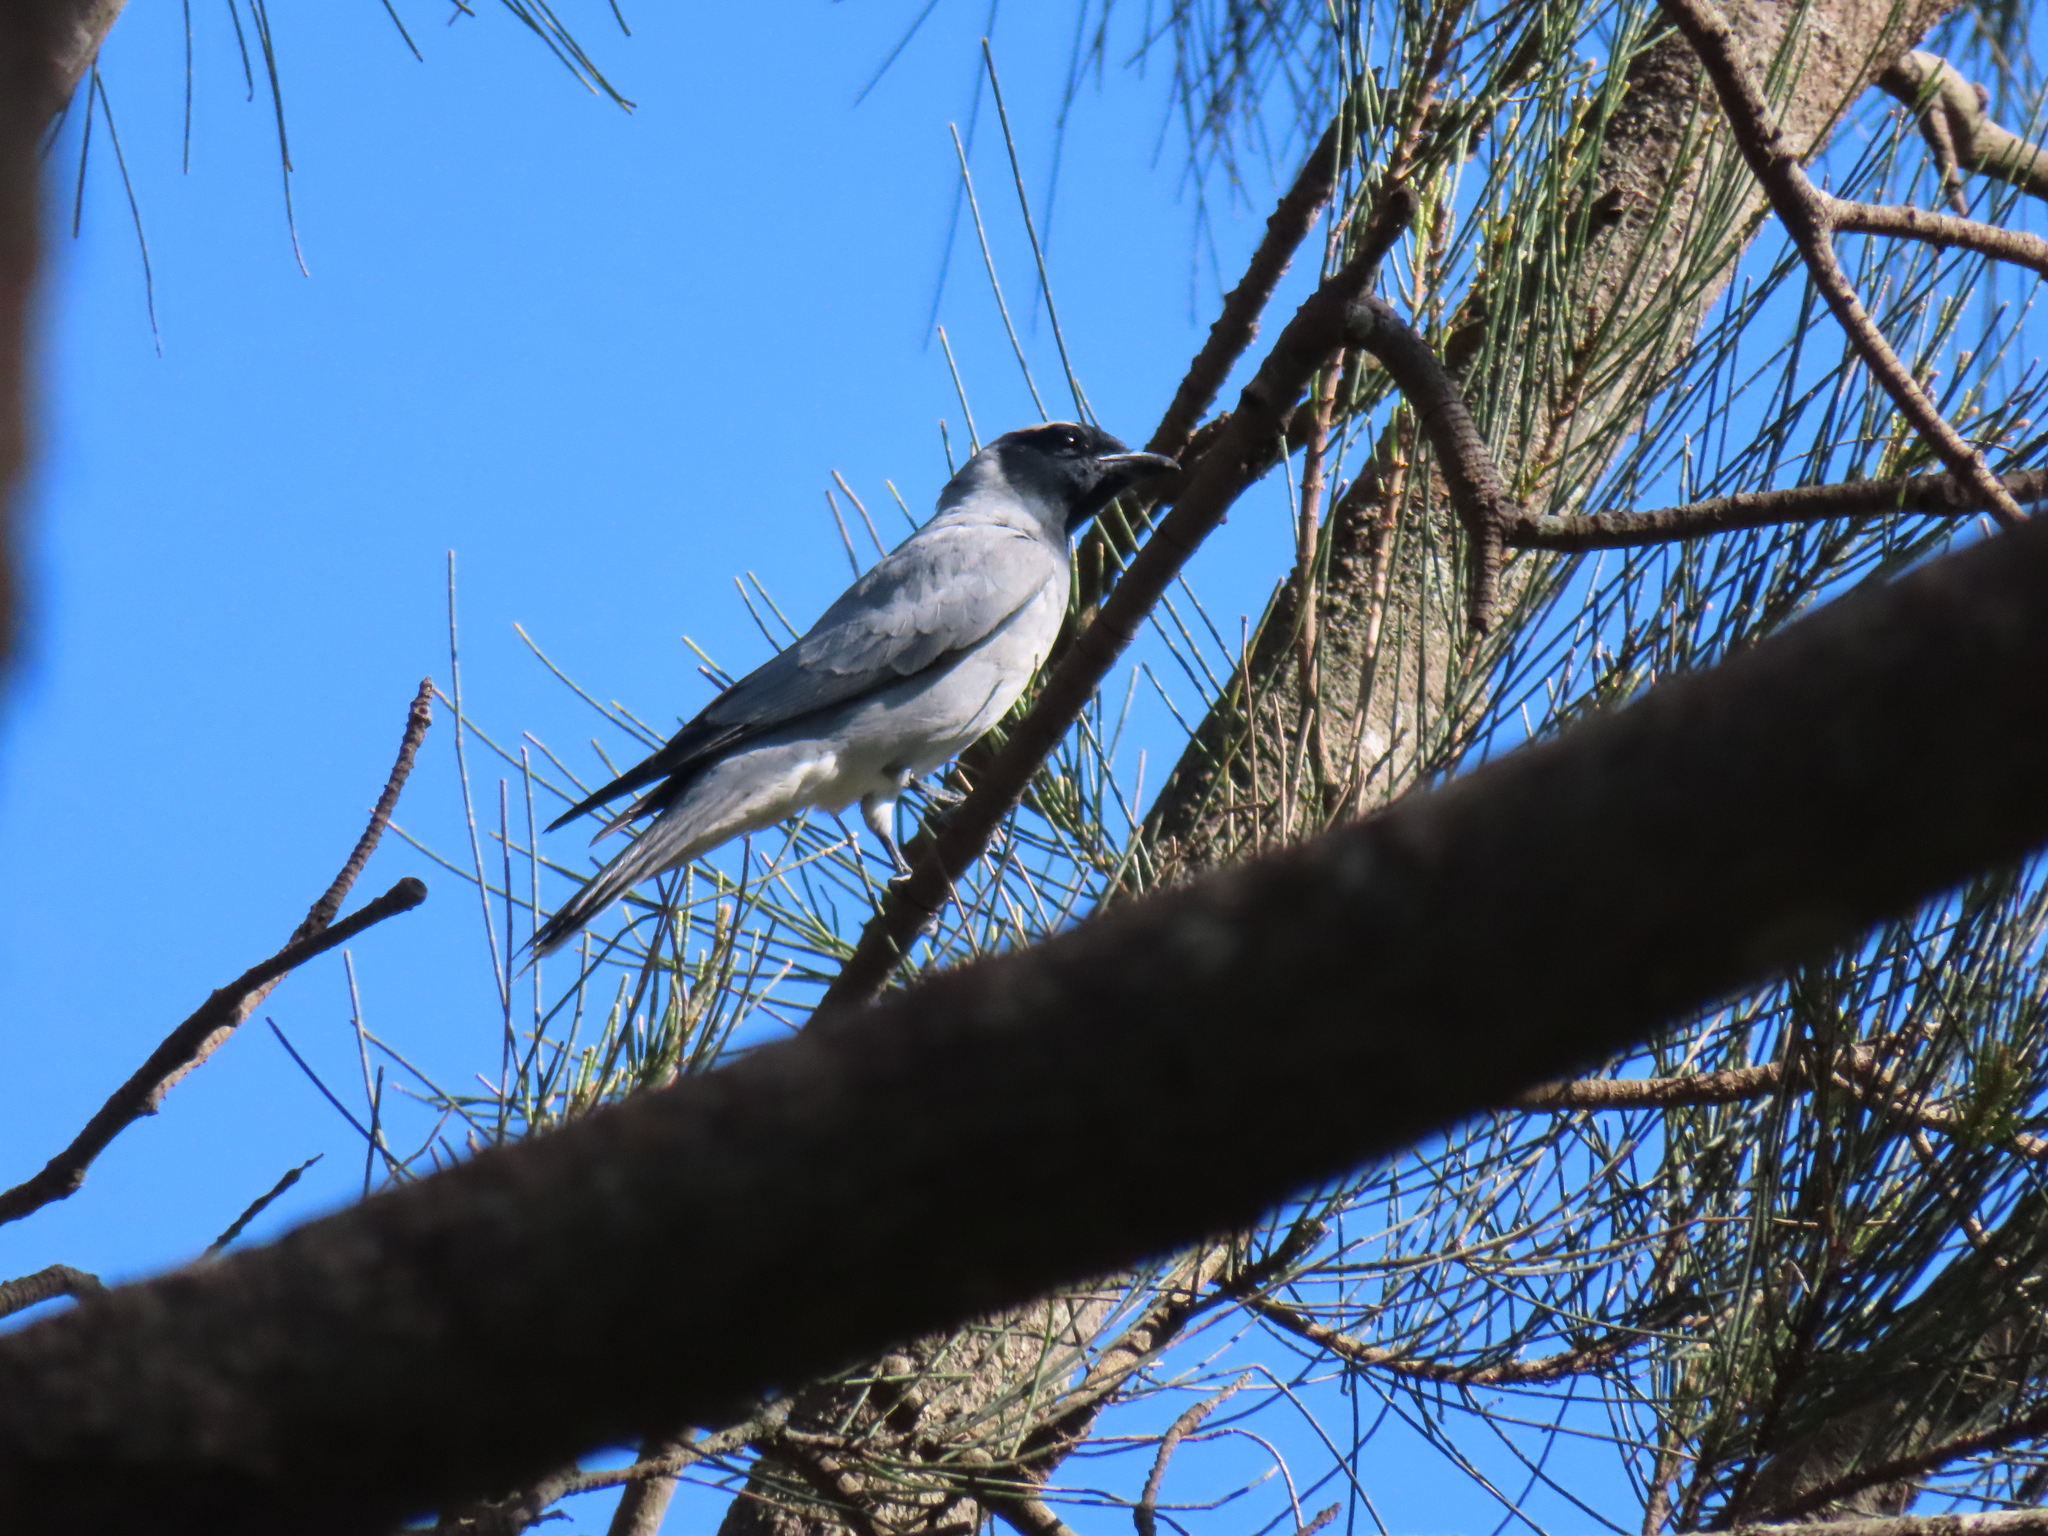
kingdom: Animalia
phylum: Chordata
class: Aves
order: Passeriformes
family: Campephagidae
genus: Coracina
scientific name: Coracina novaehollandiae
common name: Black-faced cuckooshrike
